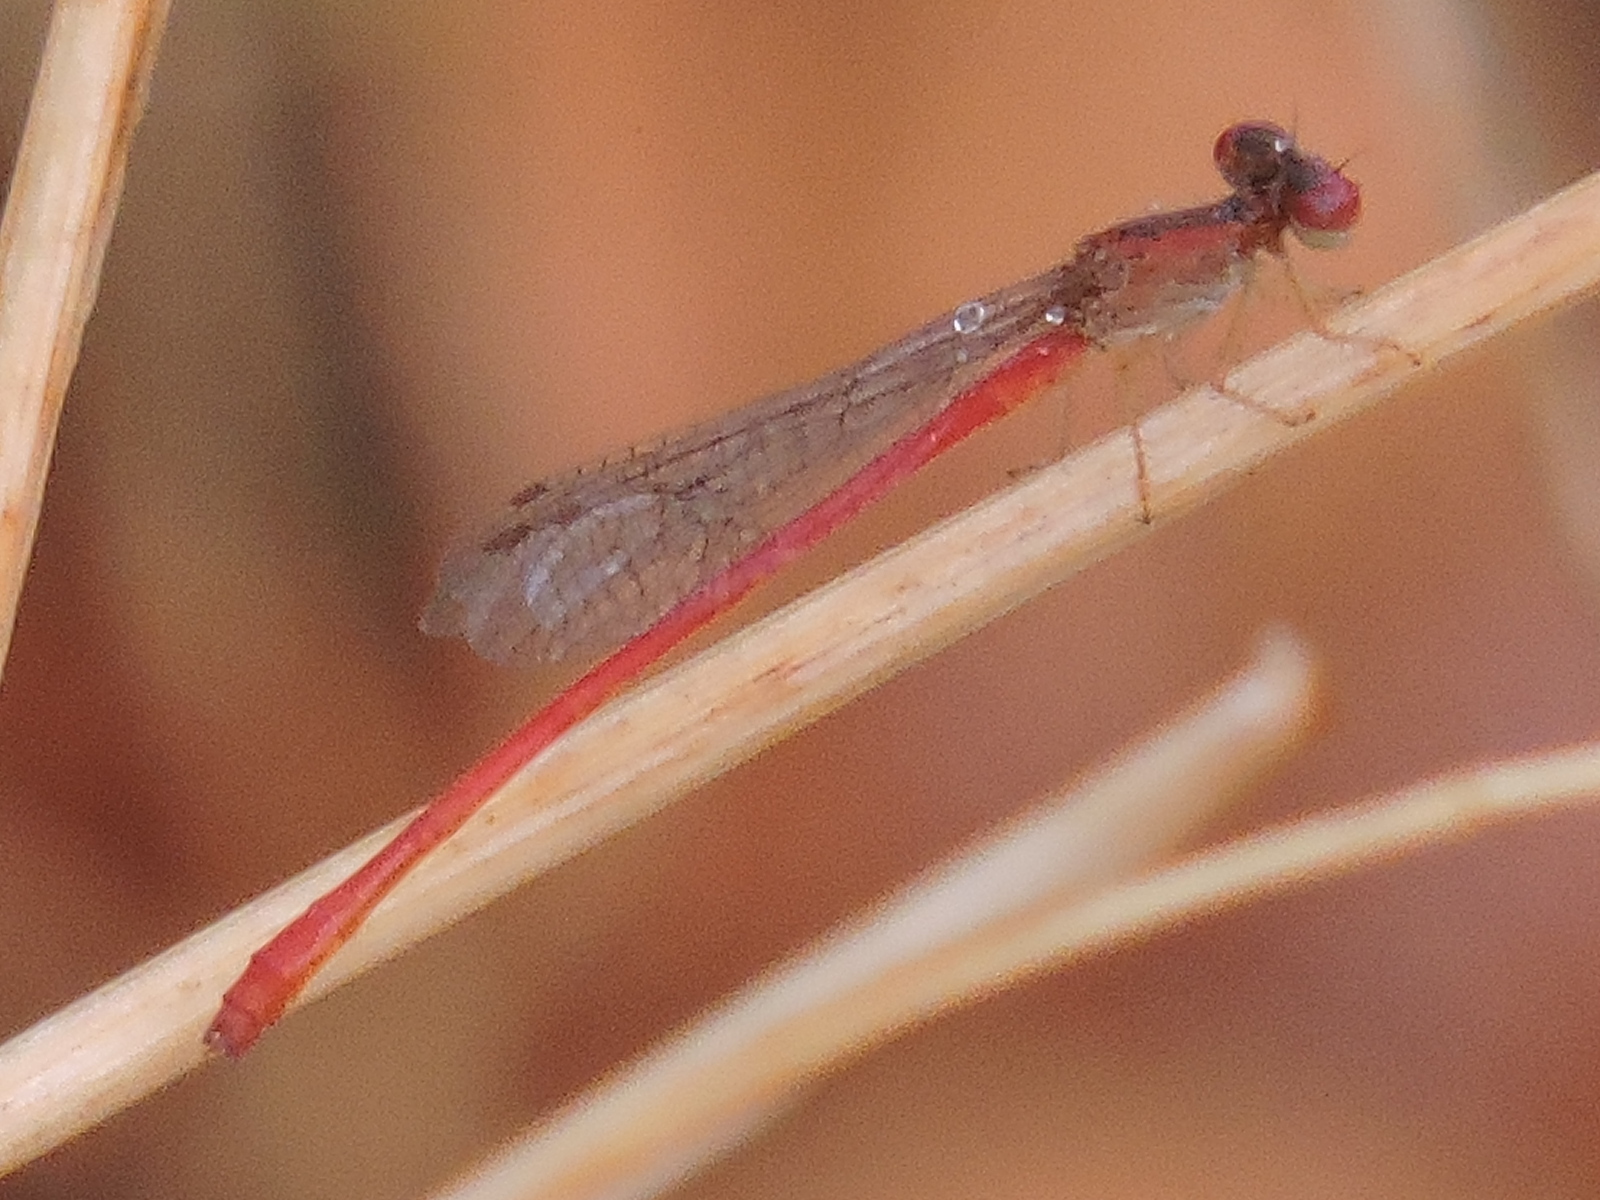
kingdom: Animalia
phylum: Arthropoda
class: Insecta
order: Odonata
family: Coenagrionidae
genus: Telebasis
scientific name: Telebasis salva
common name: Desert firetail
